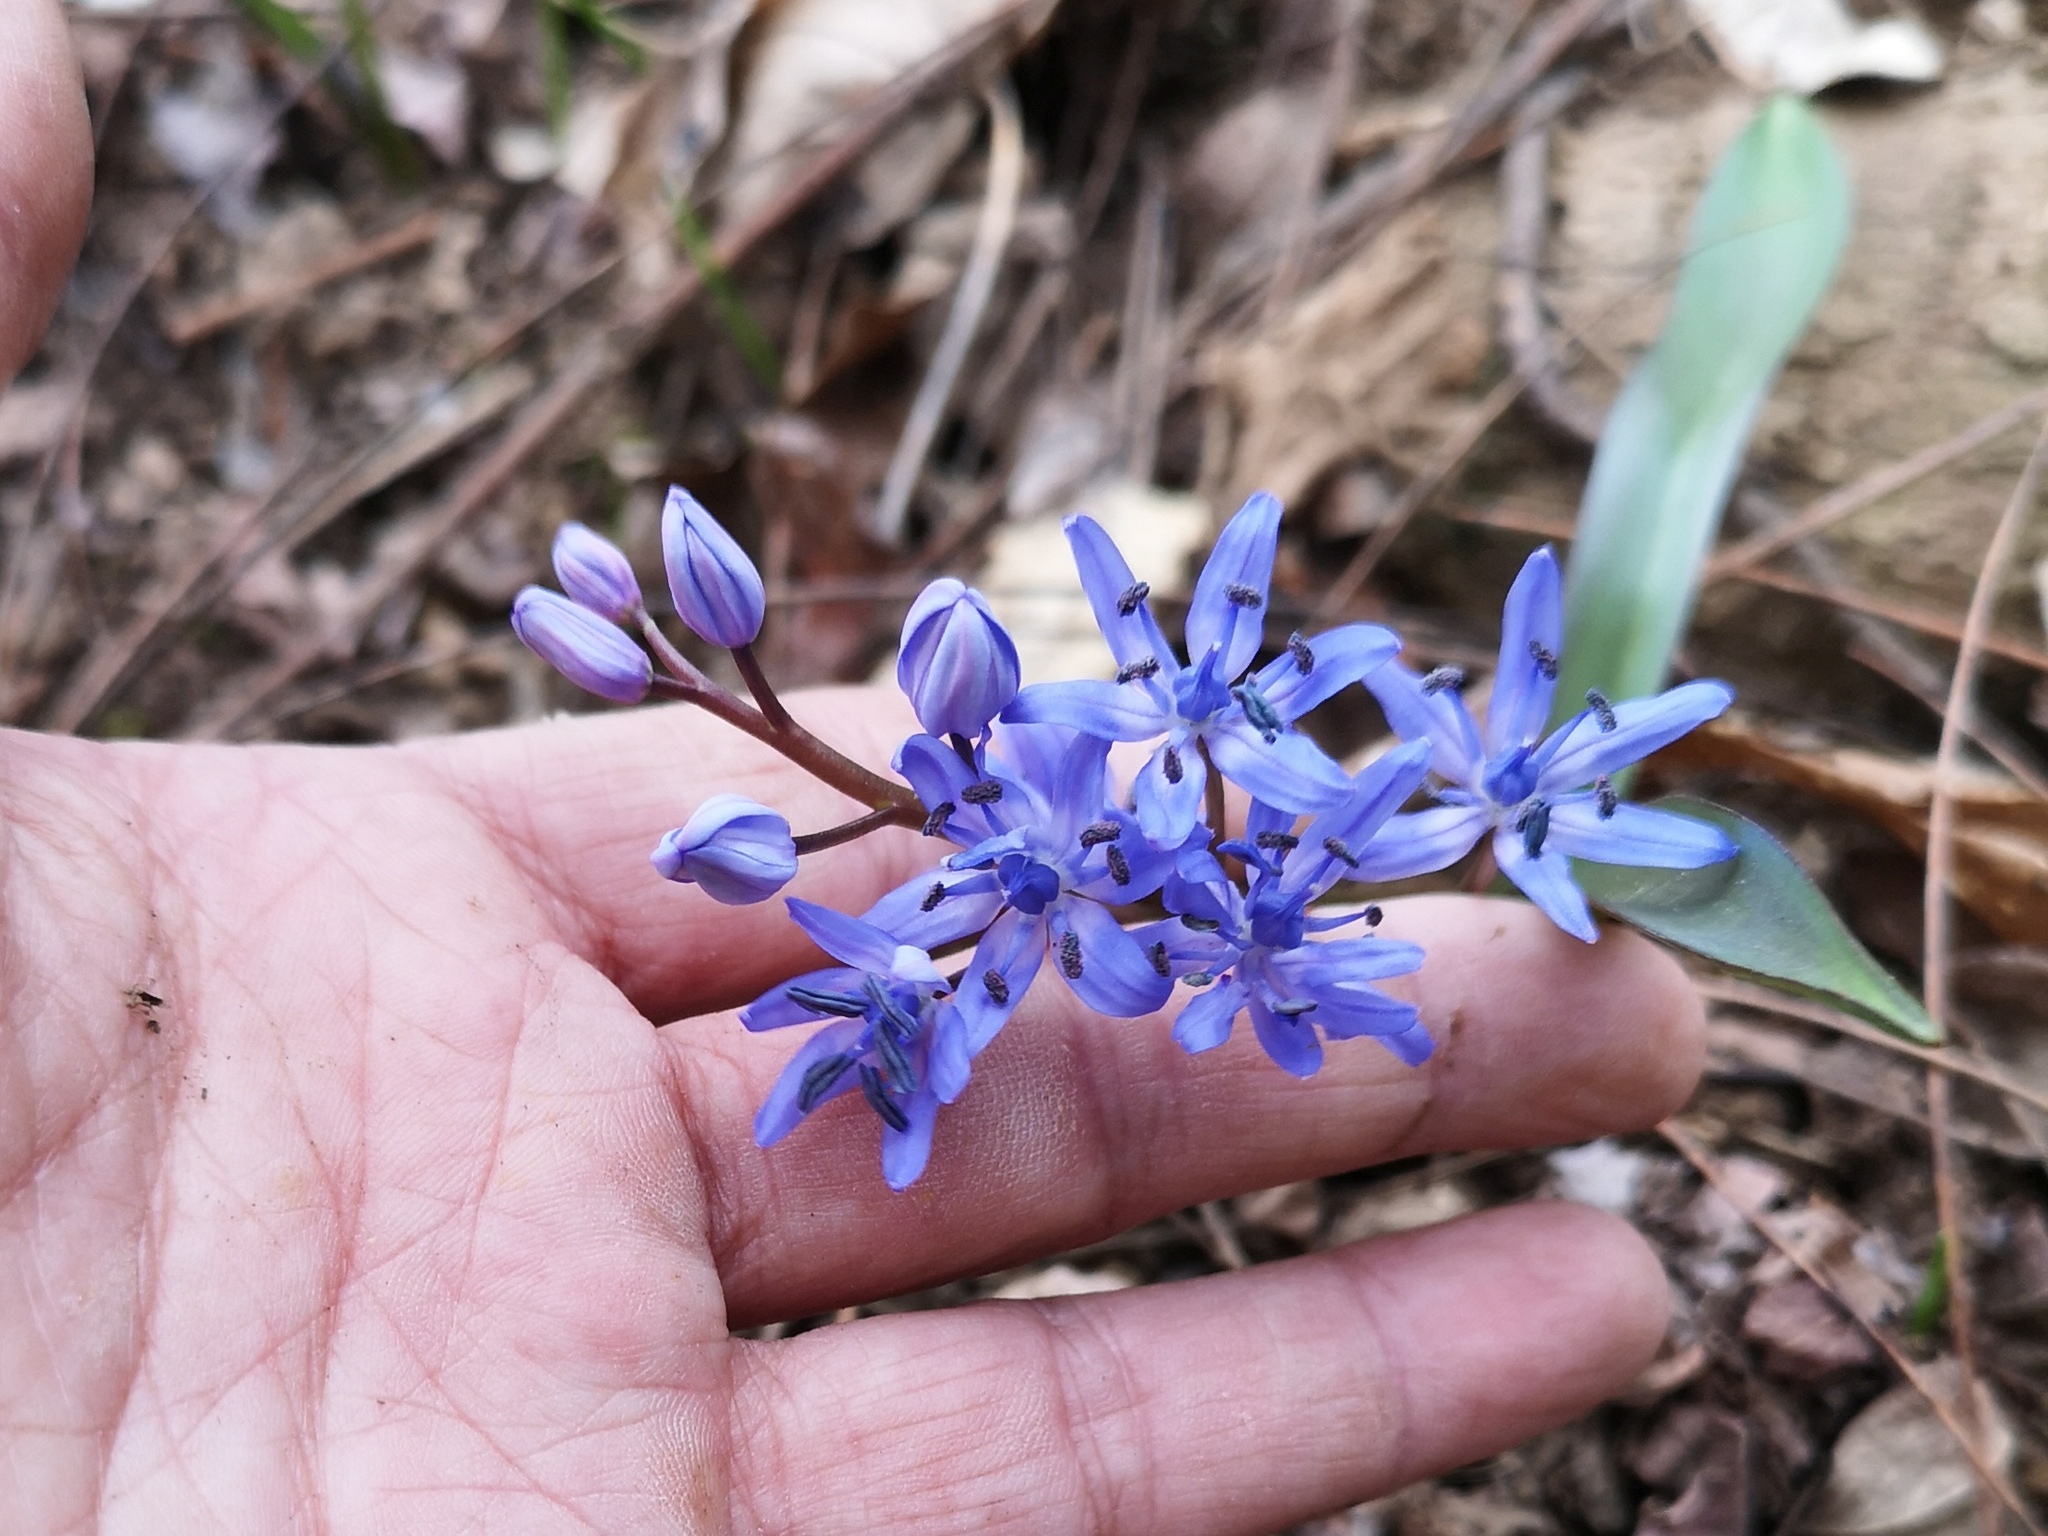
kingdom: Plantae
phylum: Tracheophyta
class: Liliopsida
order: Asparagales
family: Asparagaceae
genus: Scilla
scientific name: Scilla bifolia
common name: Alpine squill
